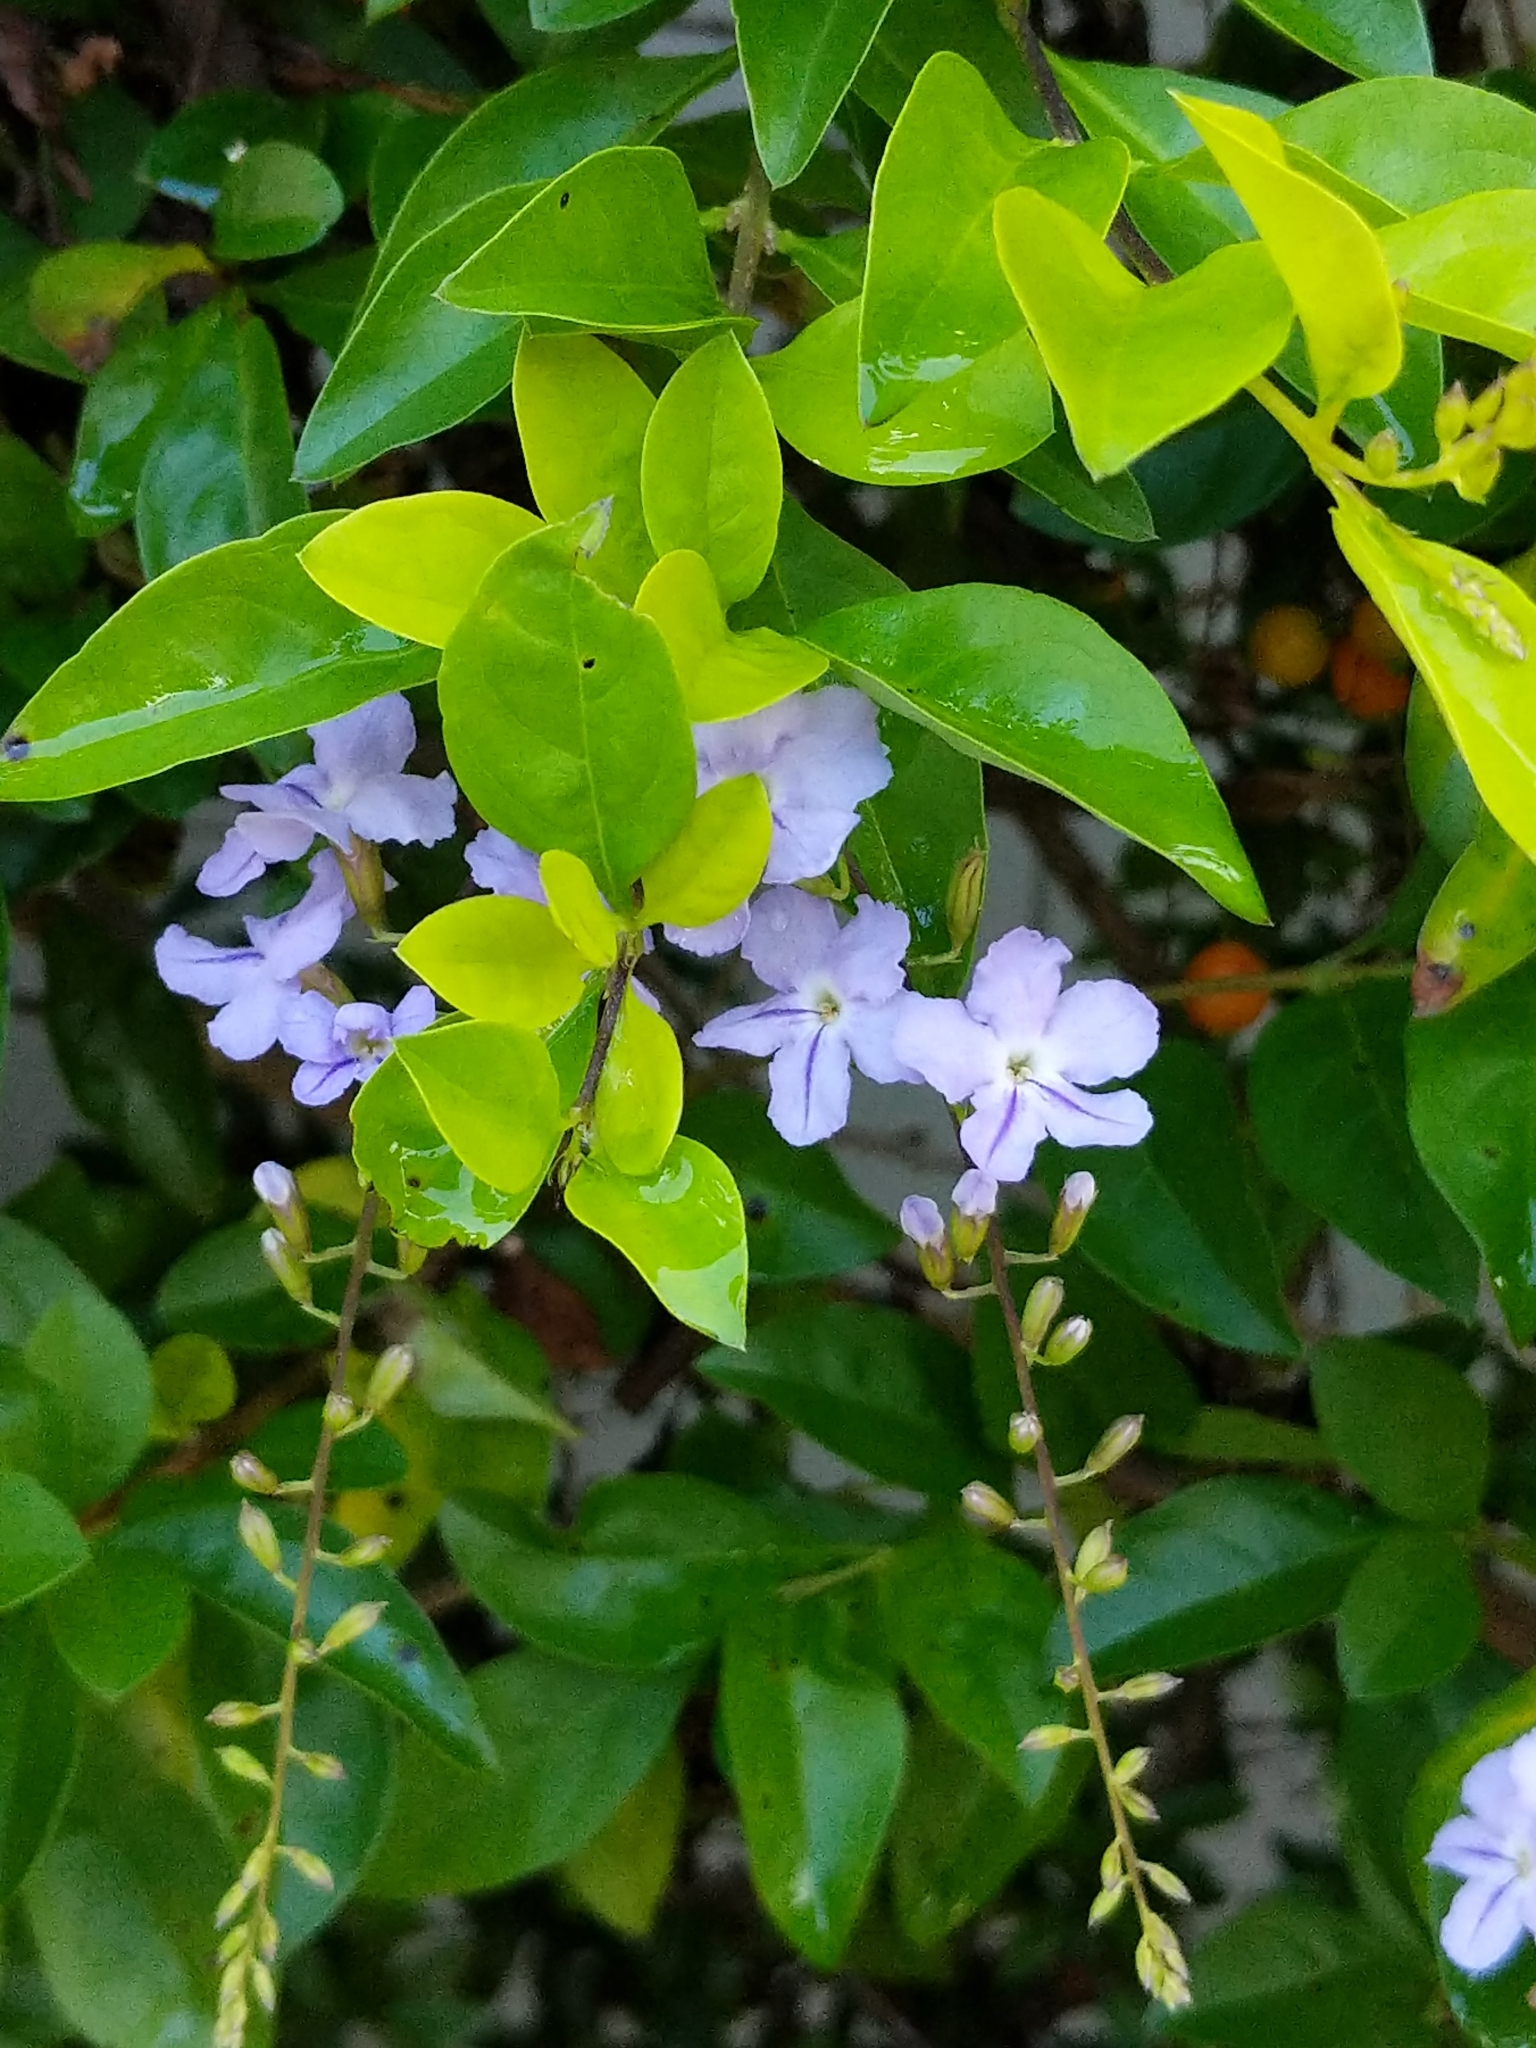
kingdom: Plantae
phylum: Tracheophyta
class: Magnoliopsida
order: Lamiales
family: Verbenaceae
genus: Duranta
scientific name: Duranta erecta
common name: Golden dewdrops
